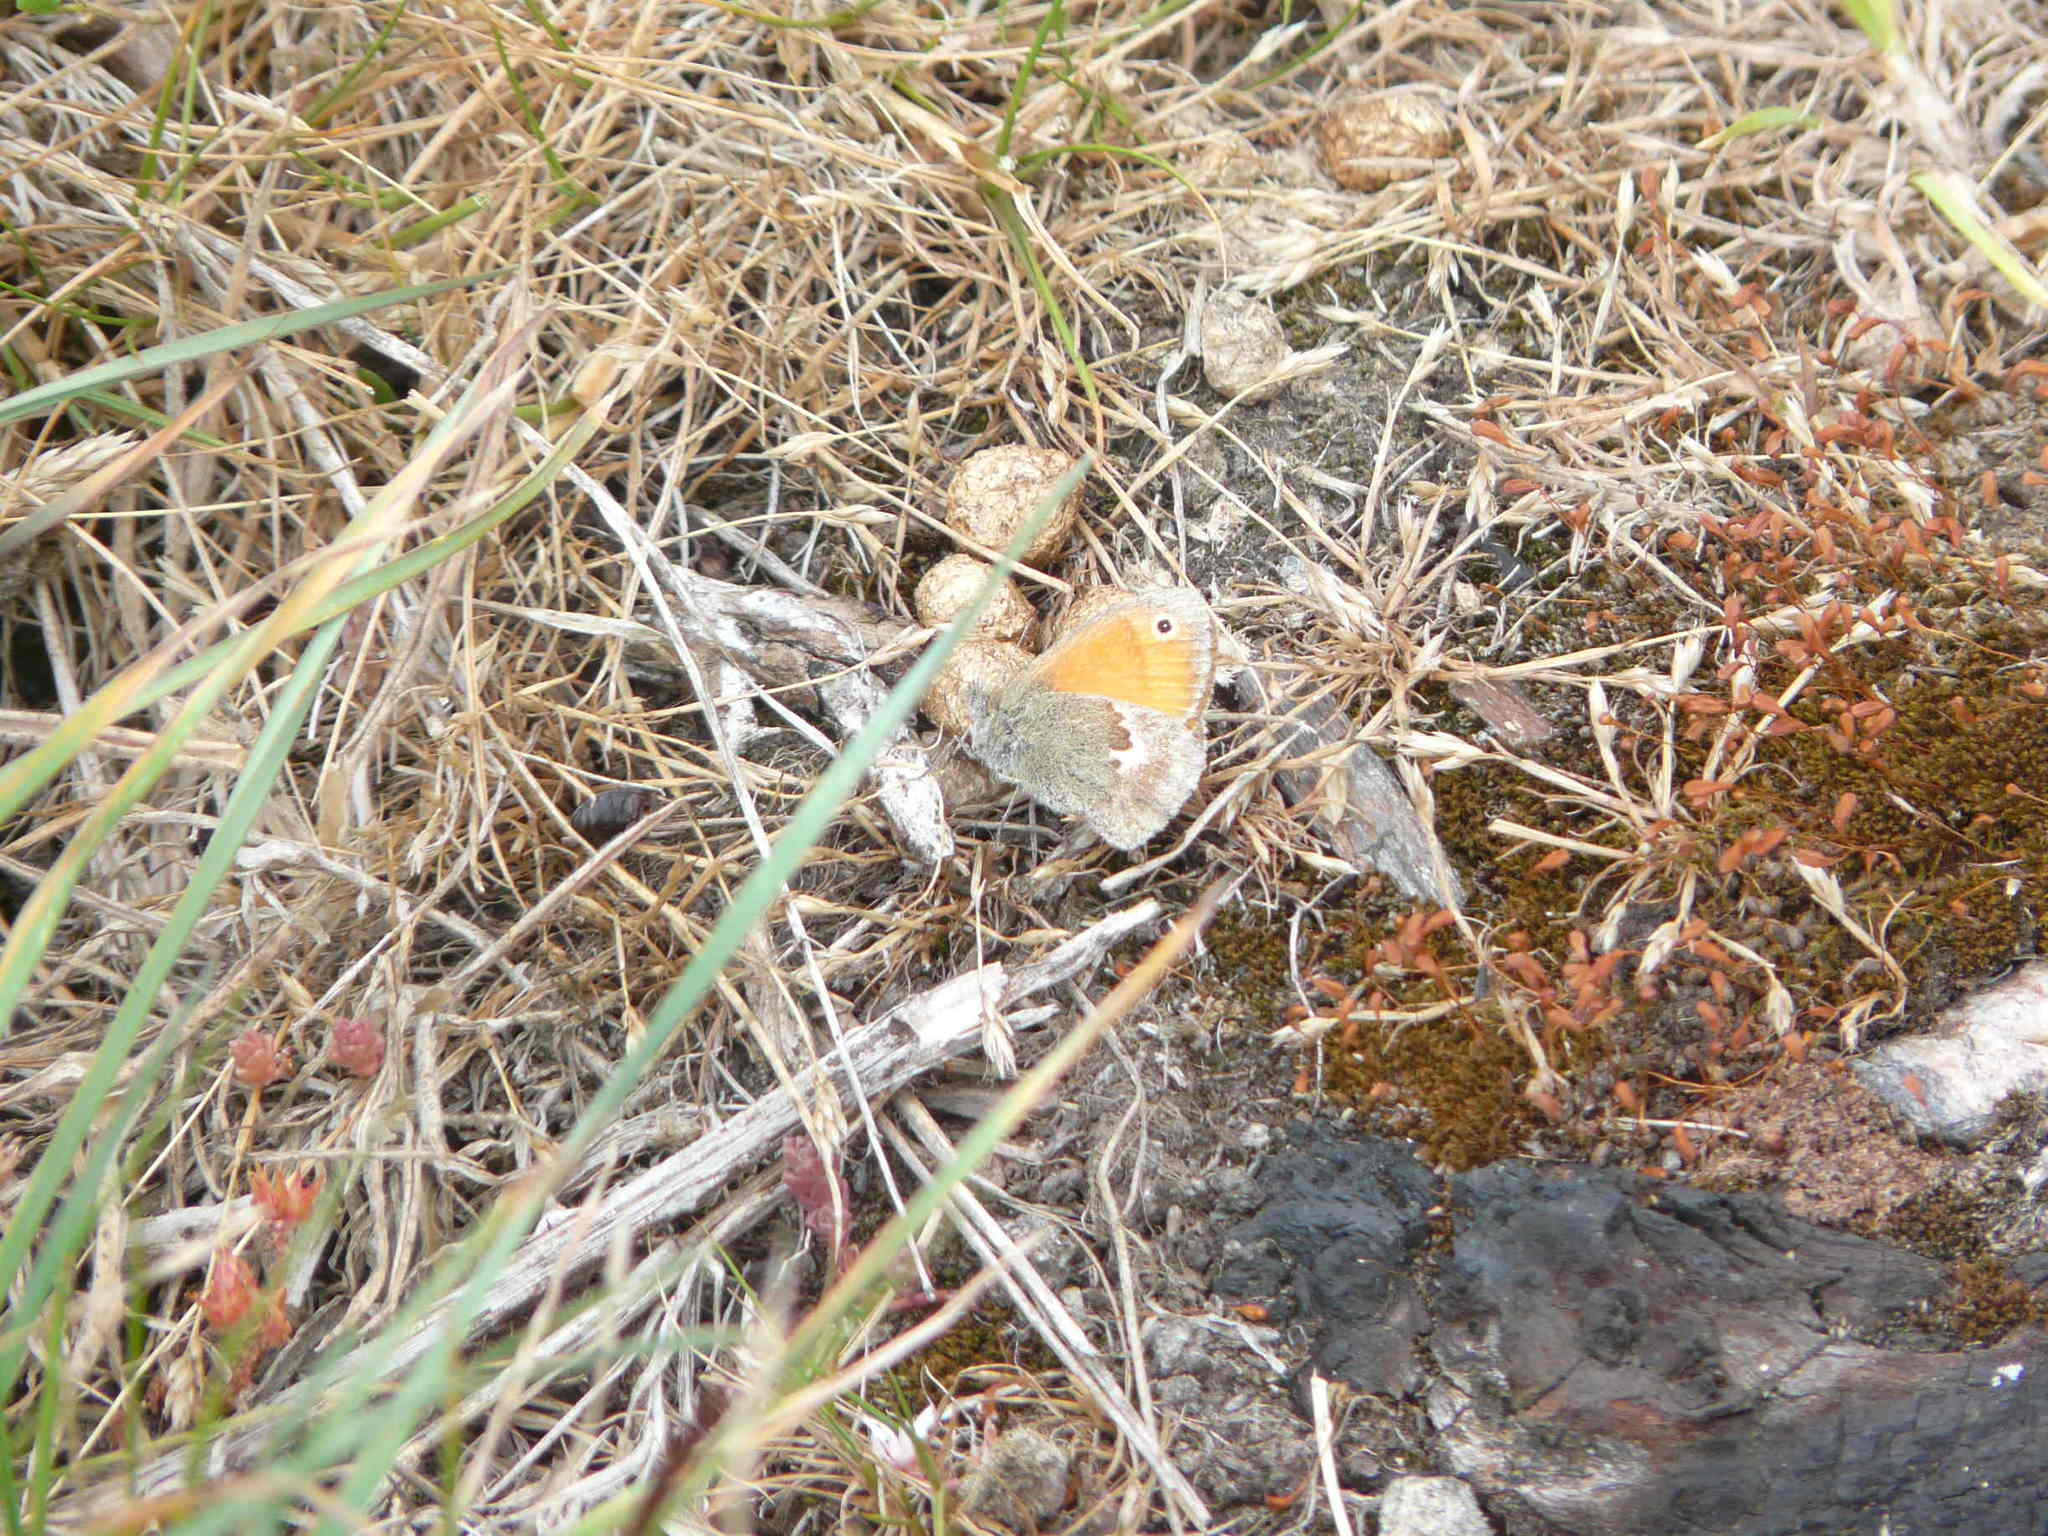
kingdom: Animalia
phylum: Arthropoda
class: Insecta
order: Lepidoptera
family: Nymphalidae
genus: Coenonympha
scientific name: Coenonympha pamphilus
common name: Small heath
